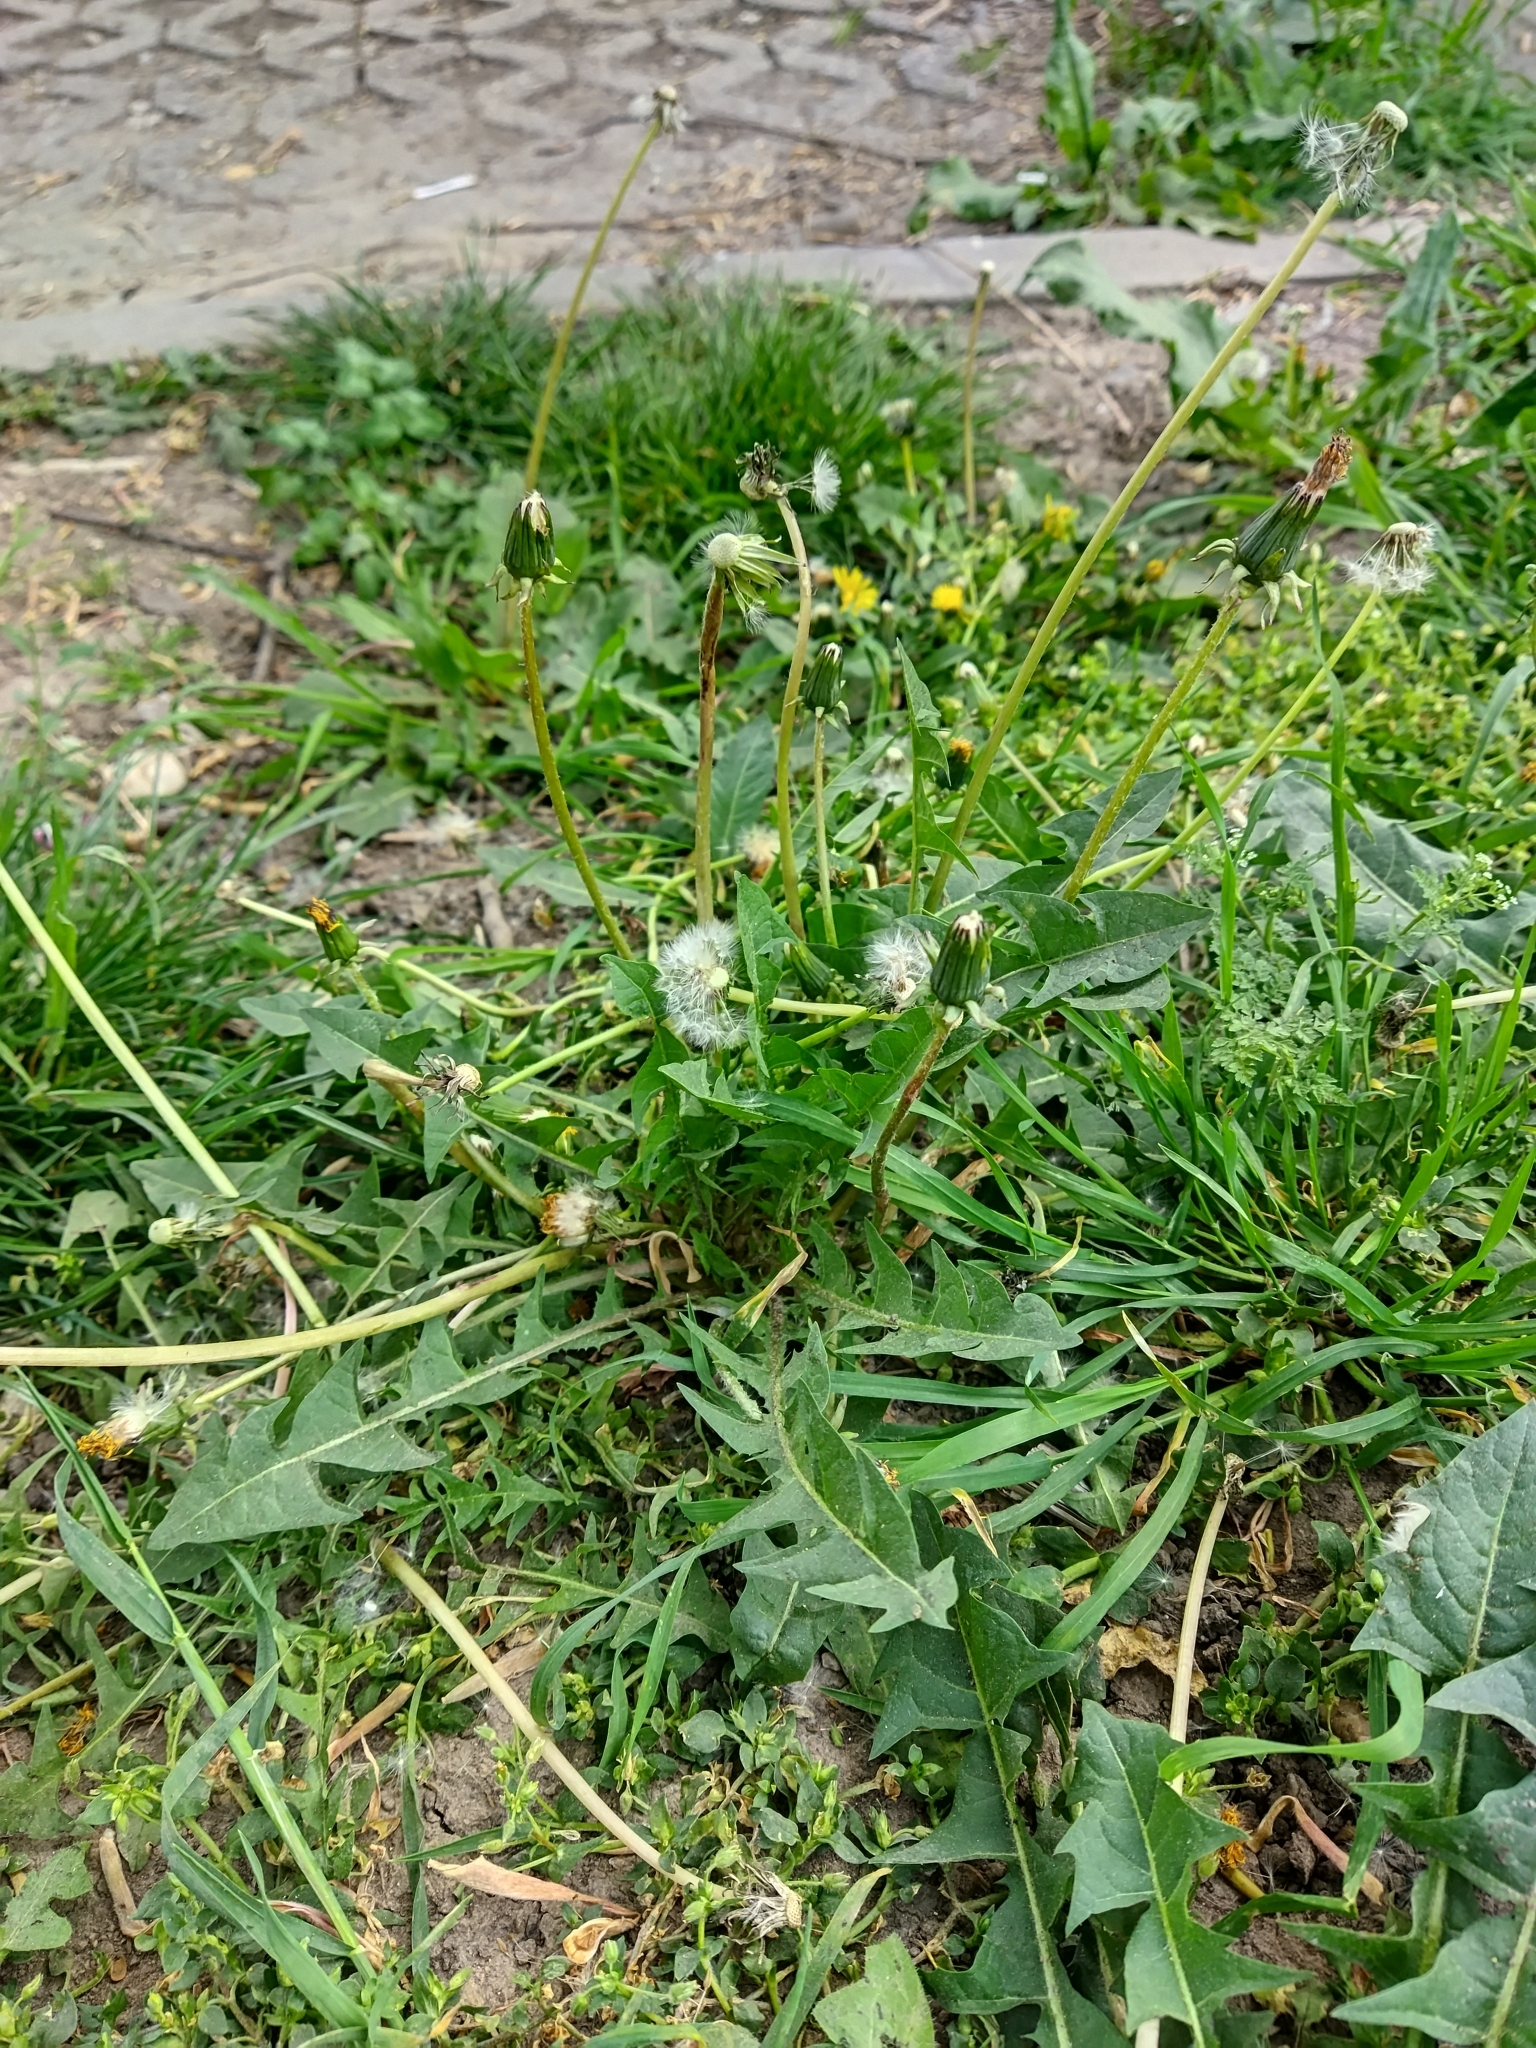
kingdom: Plantae
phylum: Tracheophyta
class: Magnoliopsida
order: Asterales
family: Asteraceae
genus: Taraxacum
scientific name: Taraxacum officinale
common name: Common dandelion
